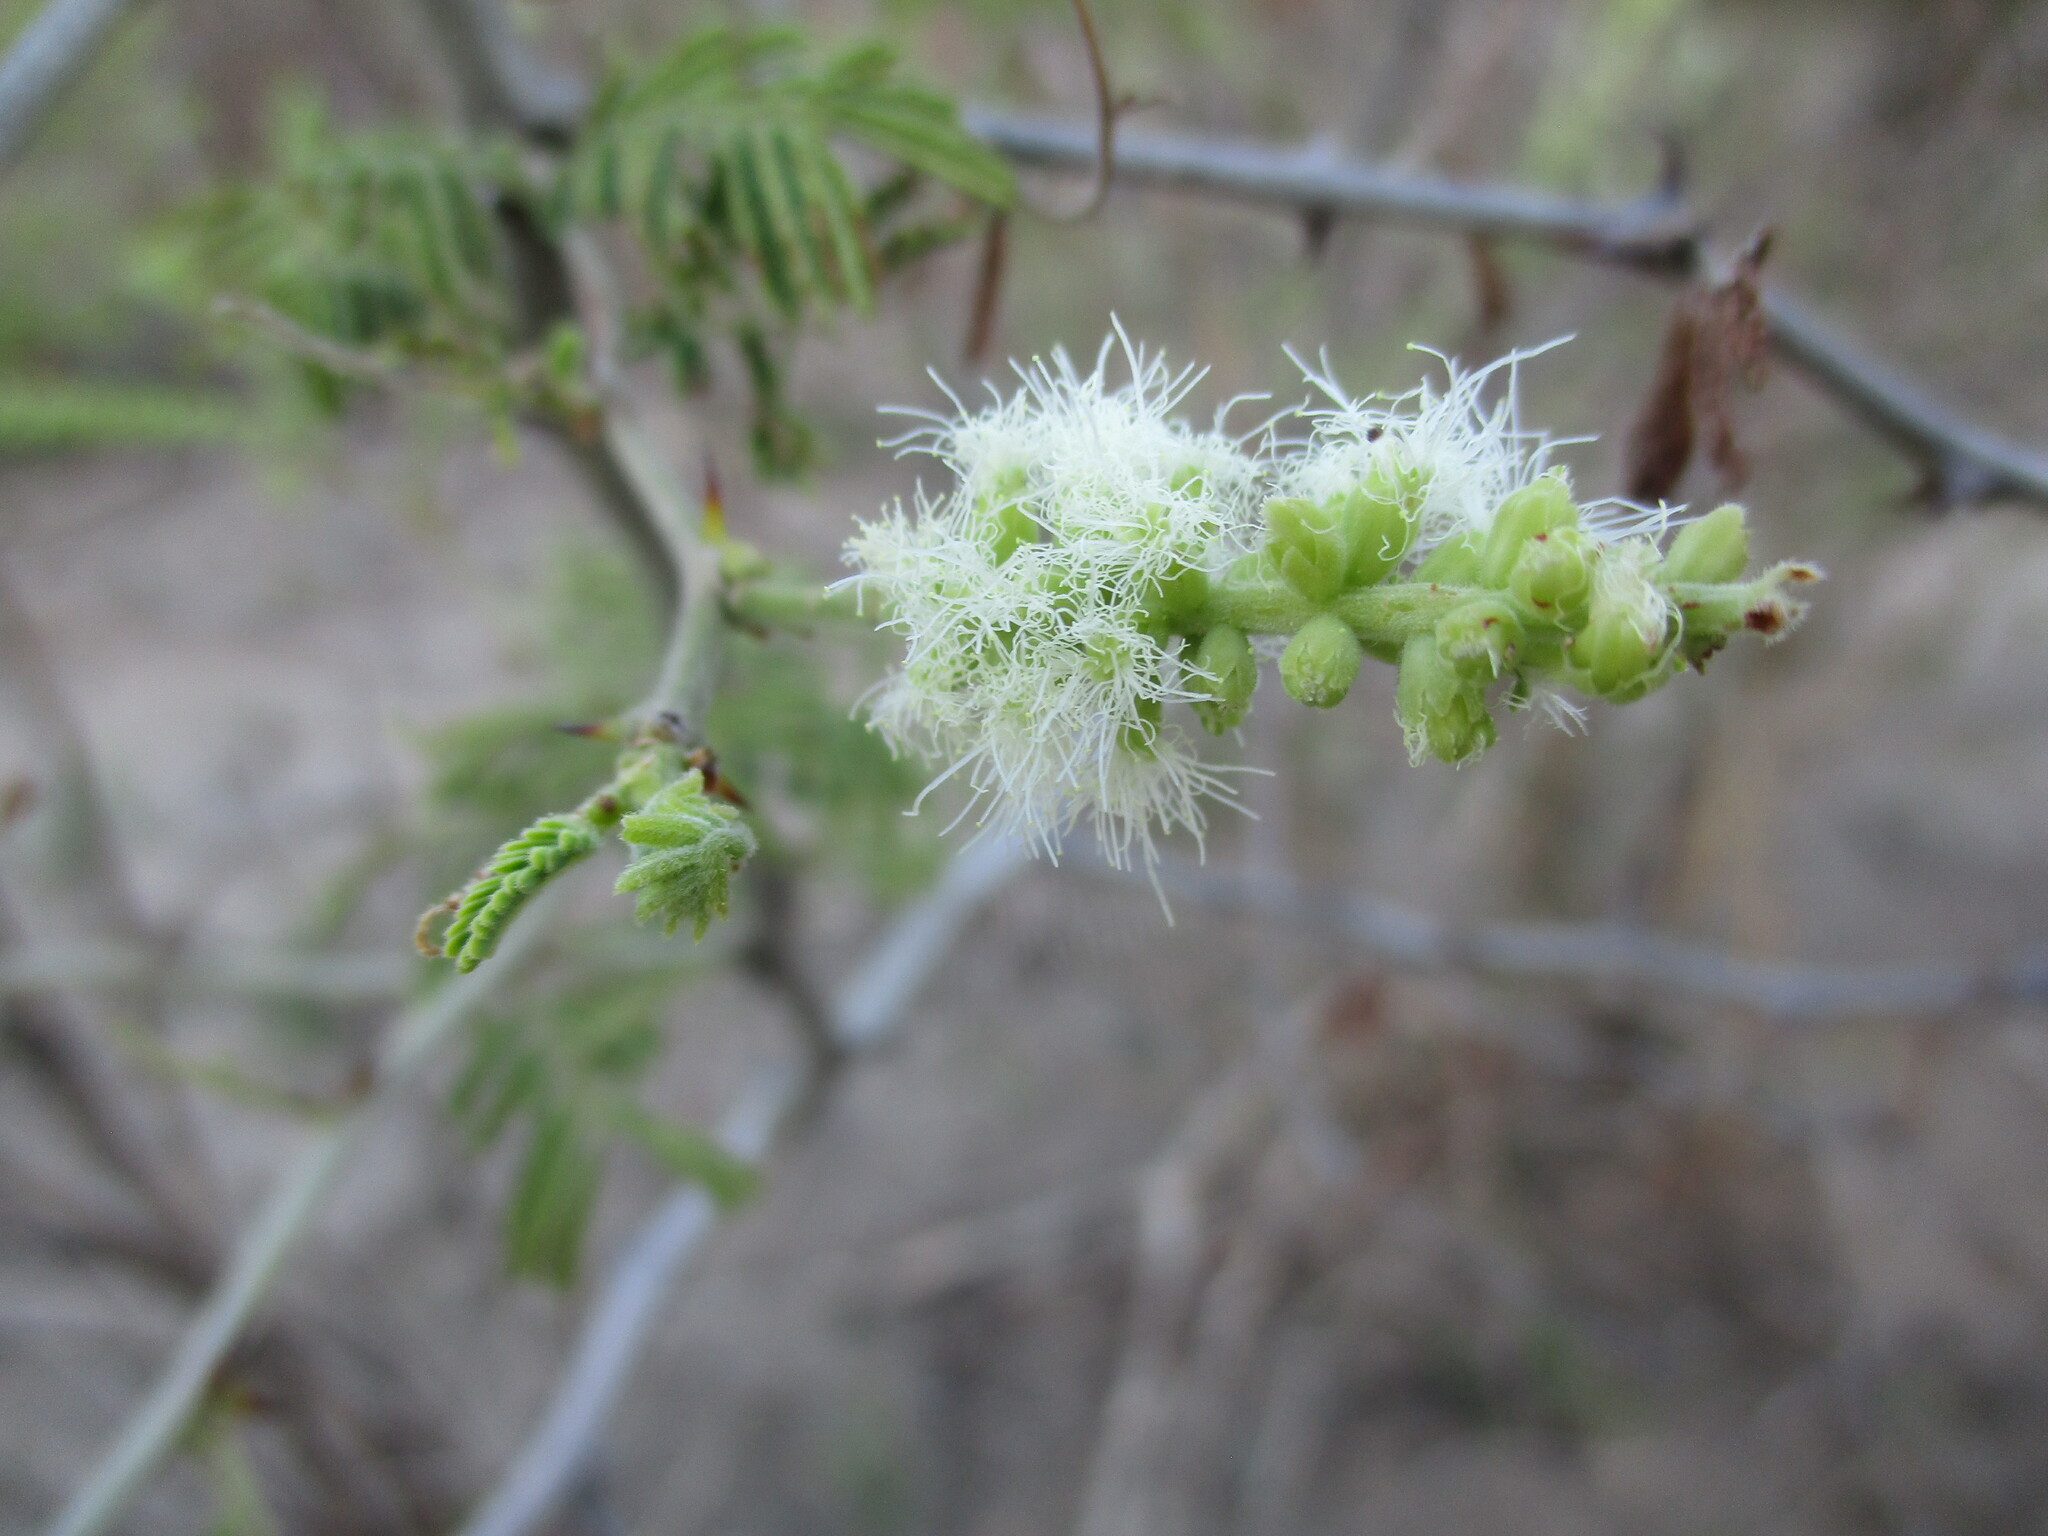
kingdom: Plantae
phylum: Tracheophyta
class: Magnoliopsida
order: Fabales
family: Fabaceae
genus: Senegalia
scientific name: Senegalia fleckii
